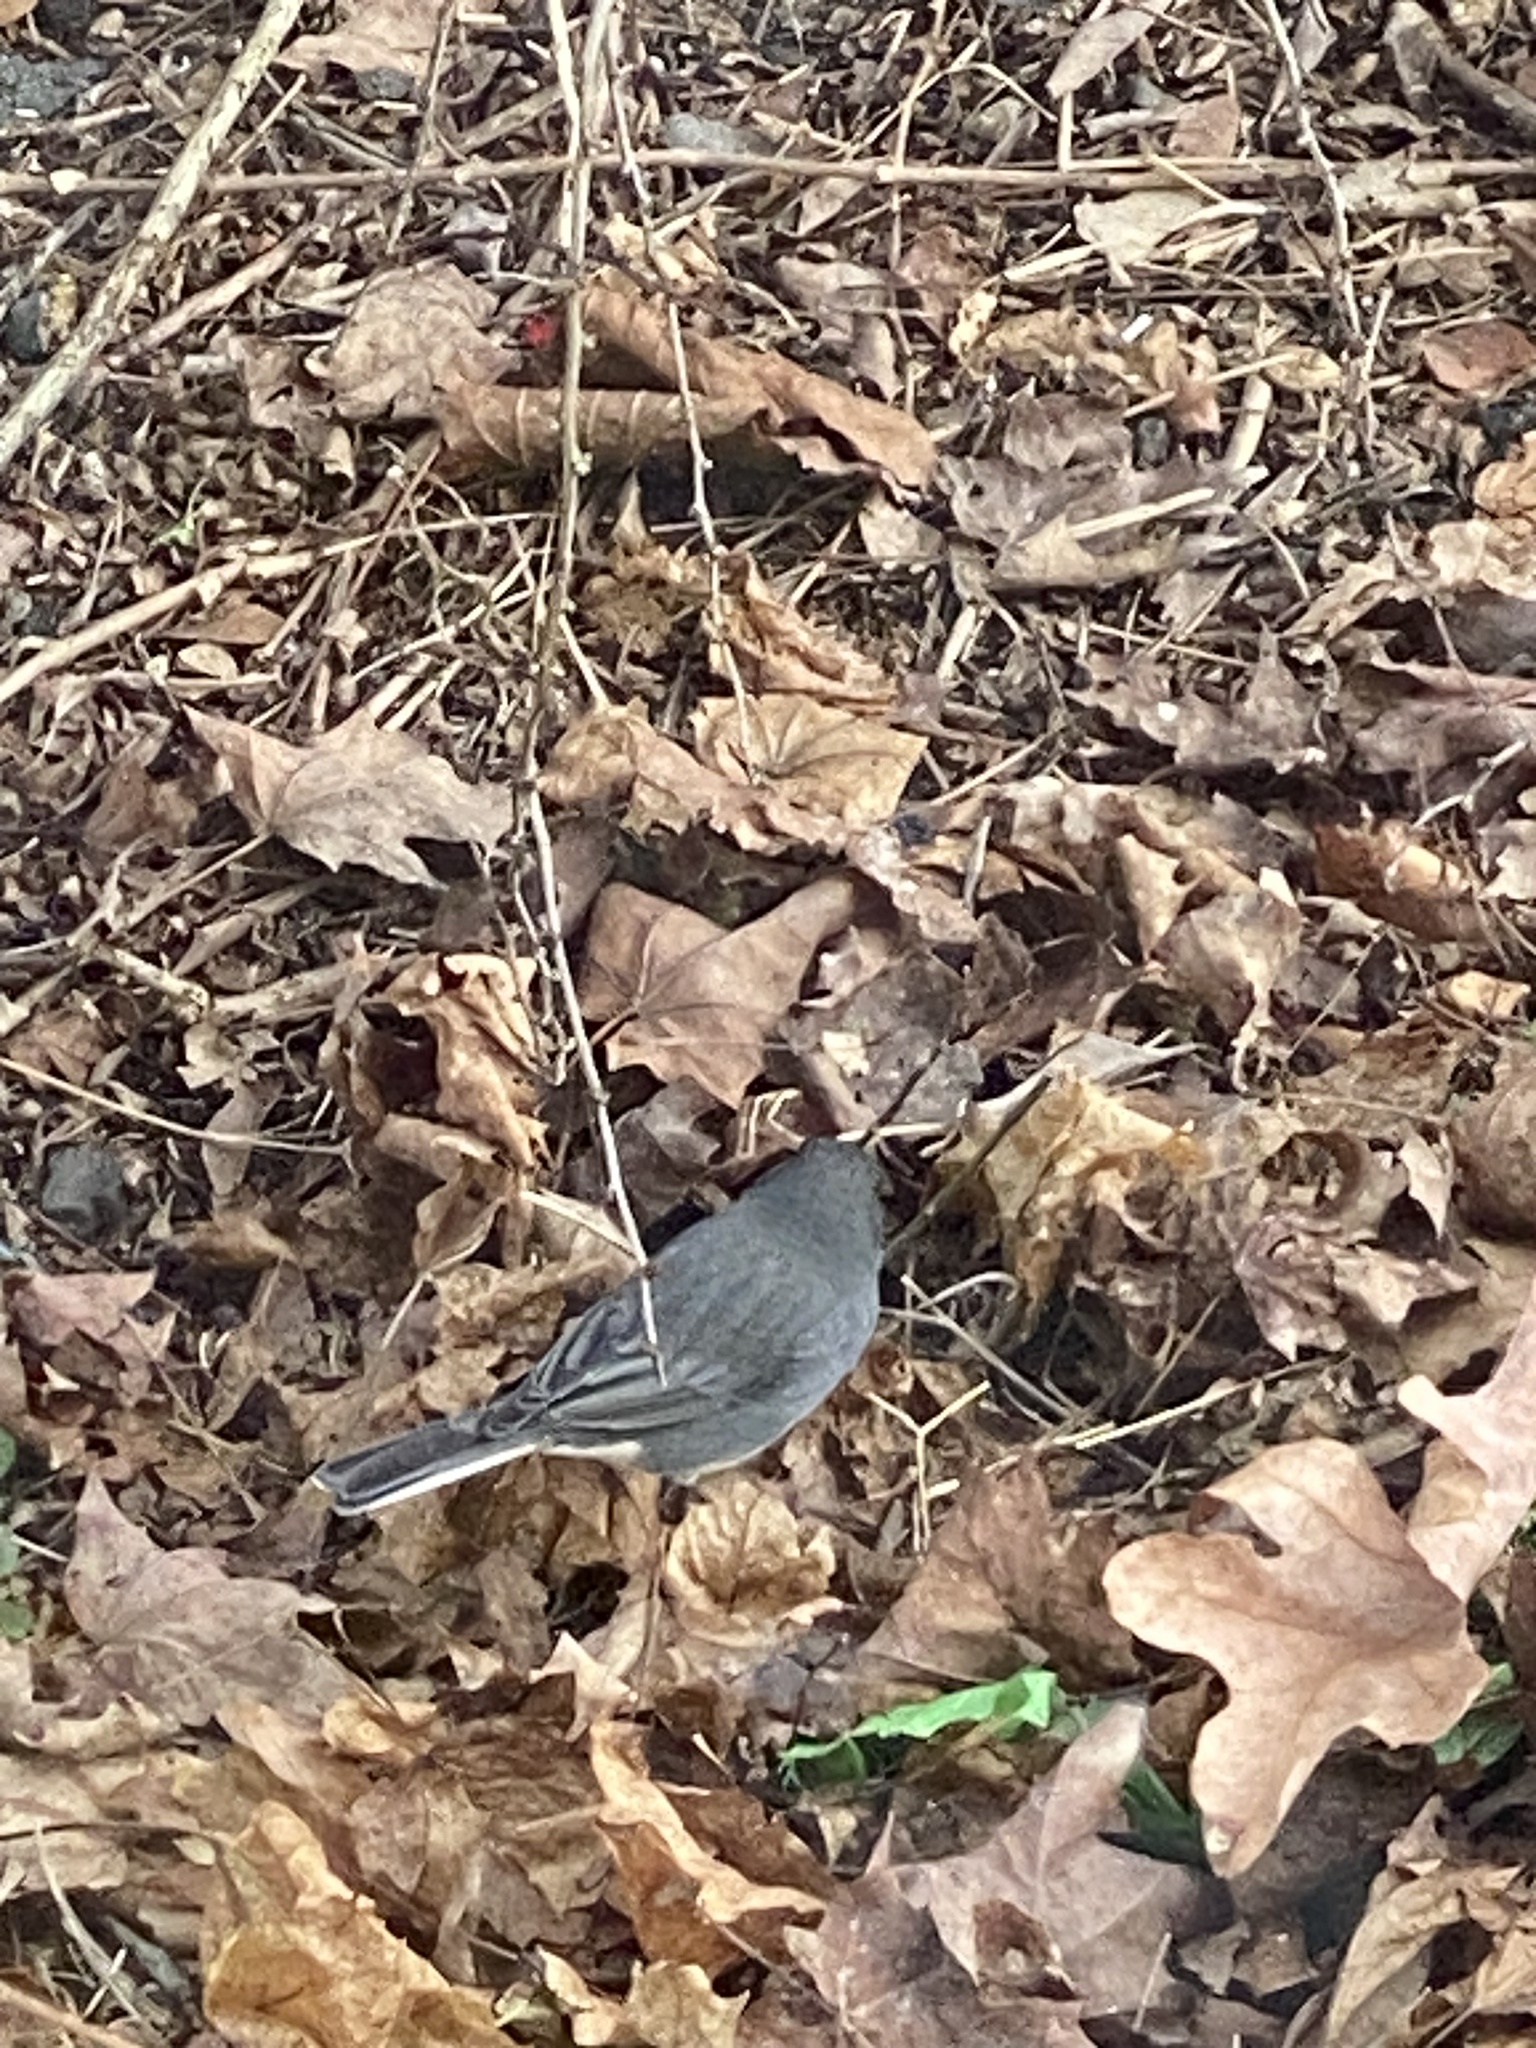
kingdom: Animalia
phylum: Chordata
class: Aves
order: Passeriformes
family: Passerellidae
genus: Junco
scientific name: Junco hyemalis
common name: Dark-eyed junco
